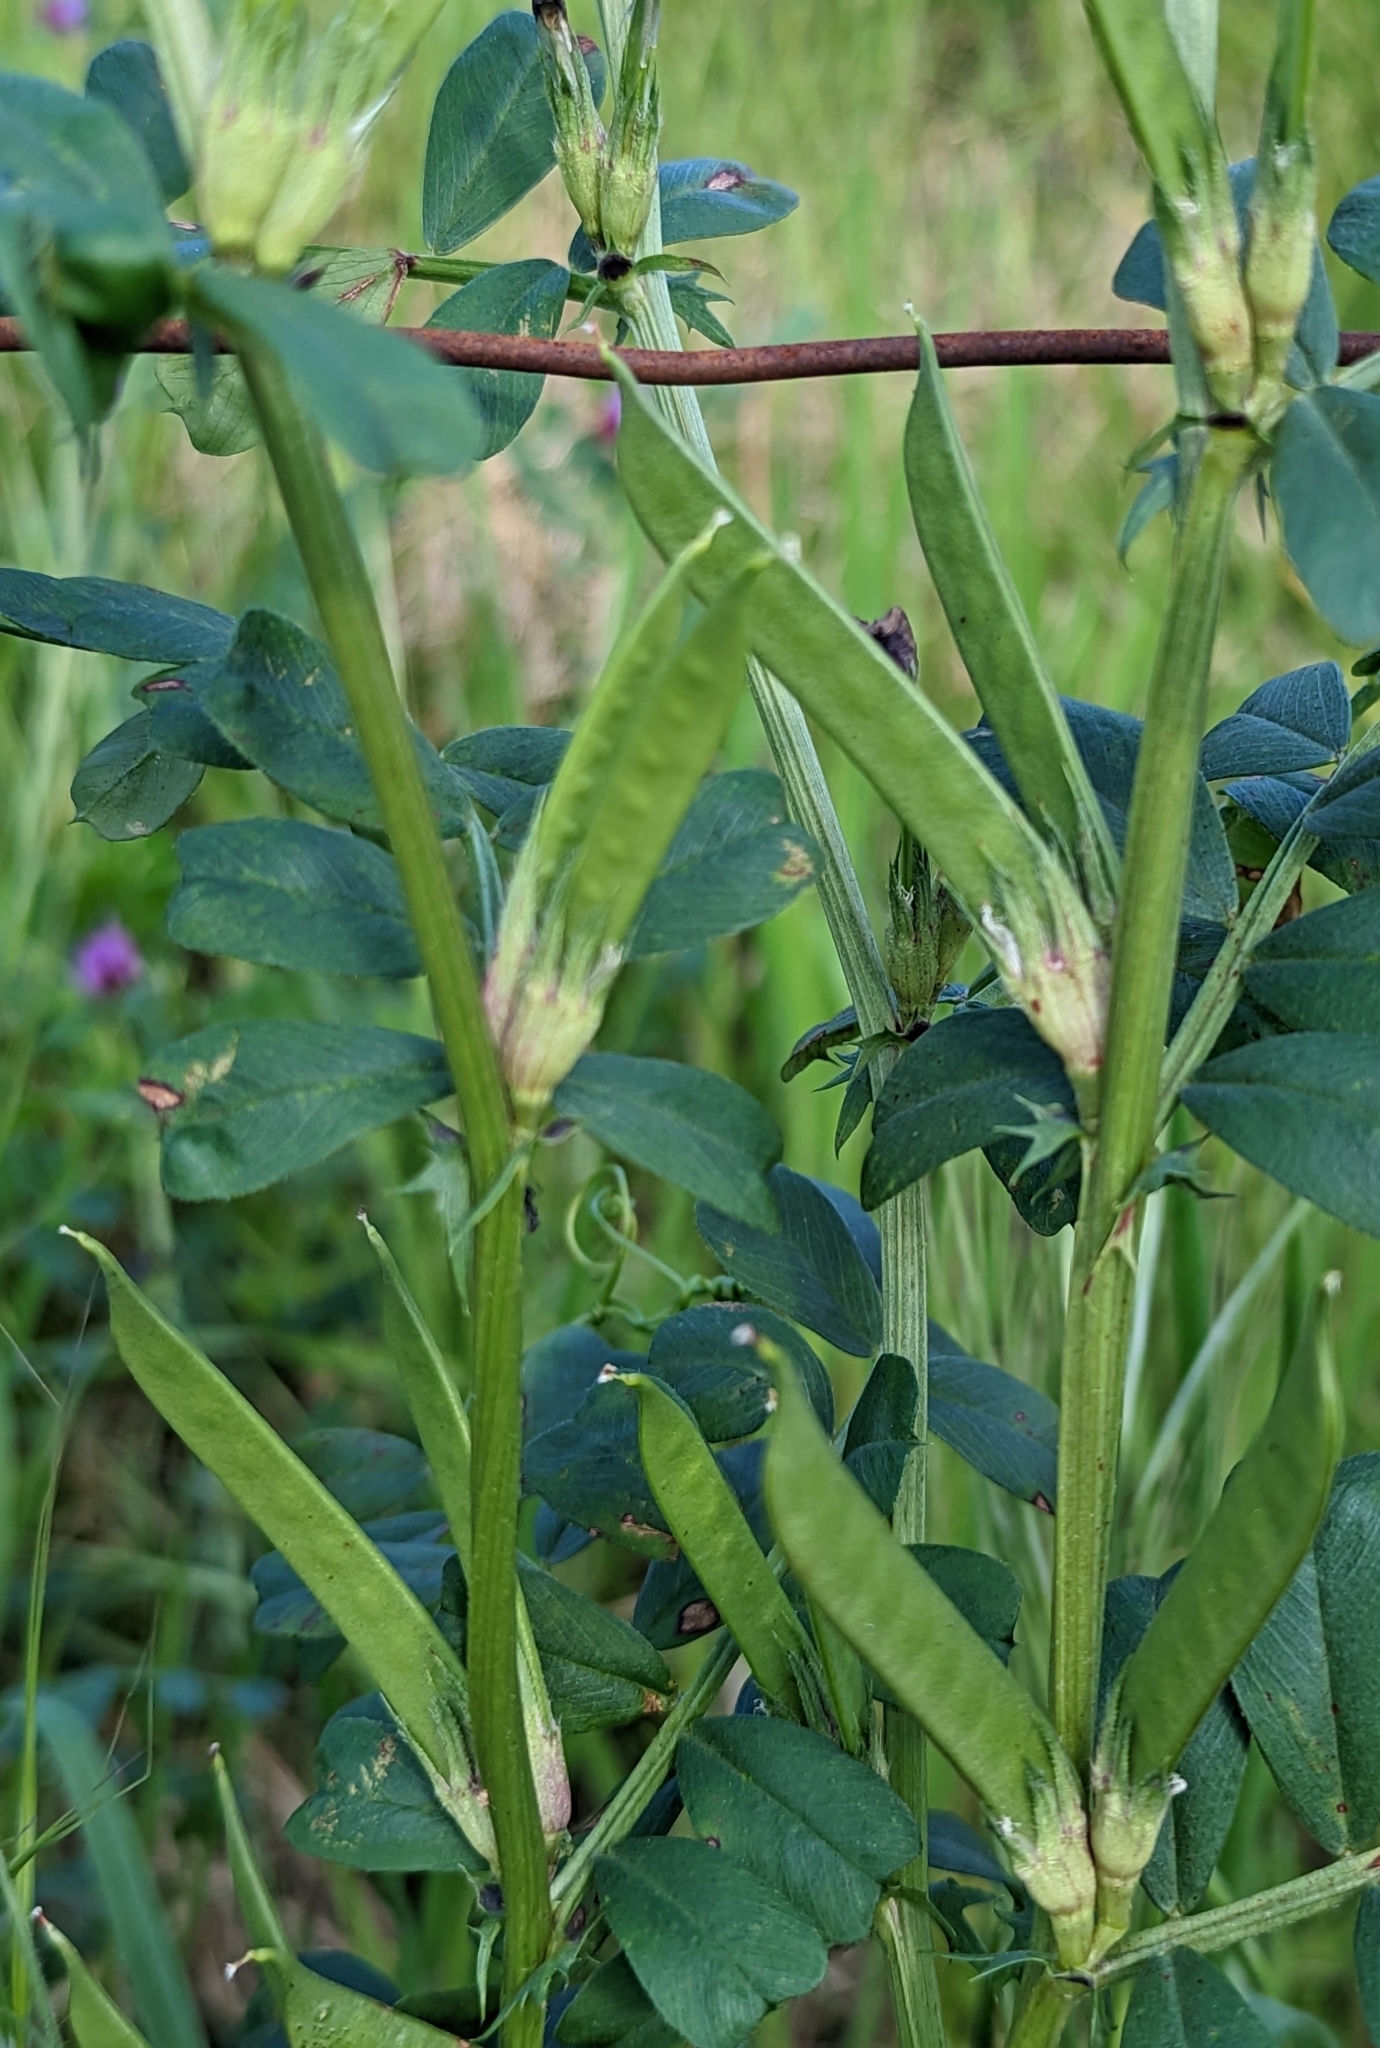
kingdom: Plantae
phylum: Tracheophyta
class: Magnoliopsida
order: Fabales
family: Fabaceae
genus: Vicia
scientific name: Vicia sativa
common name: Garden vetch
